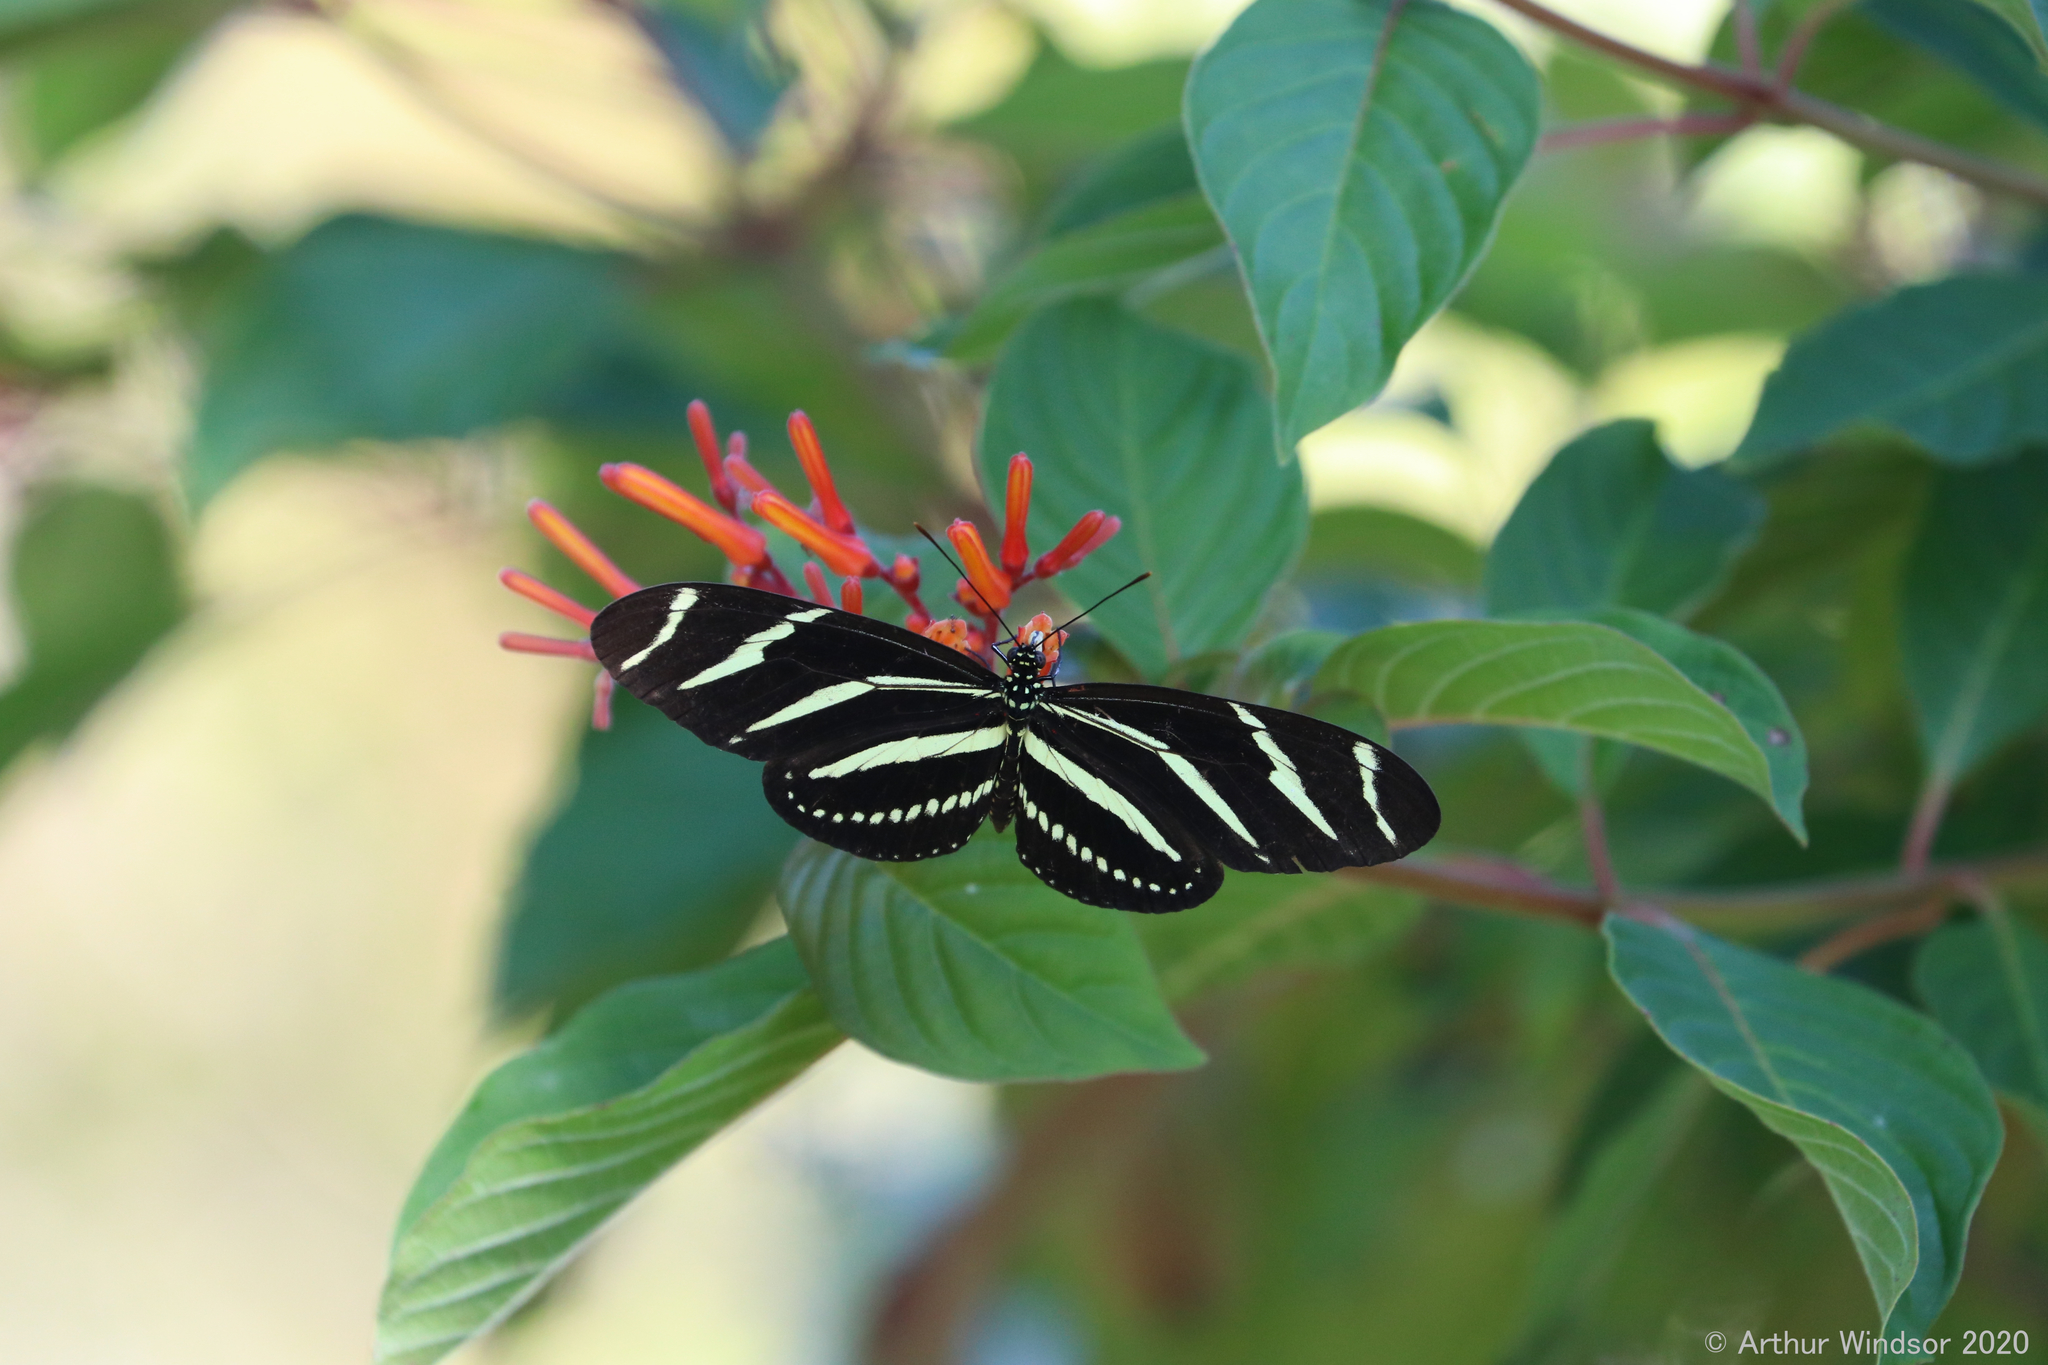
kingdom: Animalia
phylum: Arthropoda
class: Insecta
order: Lepidoptera
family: Nymphalidae
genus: Heliconius
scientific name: Heliconius charithonia
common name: Zebra long wing
